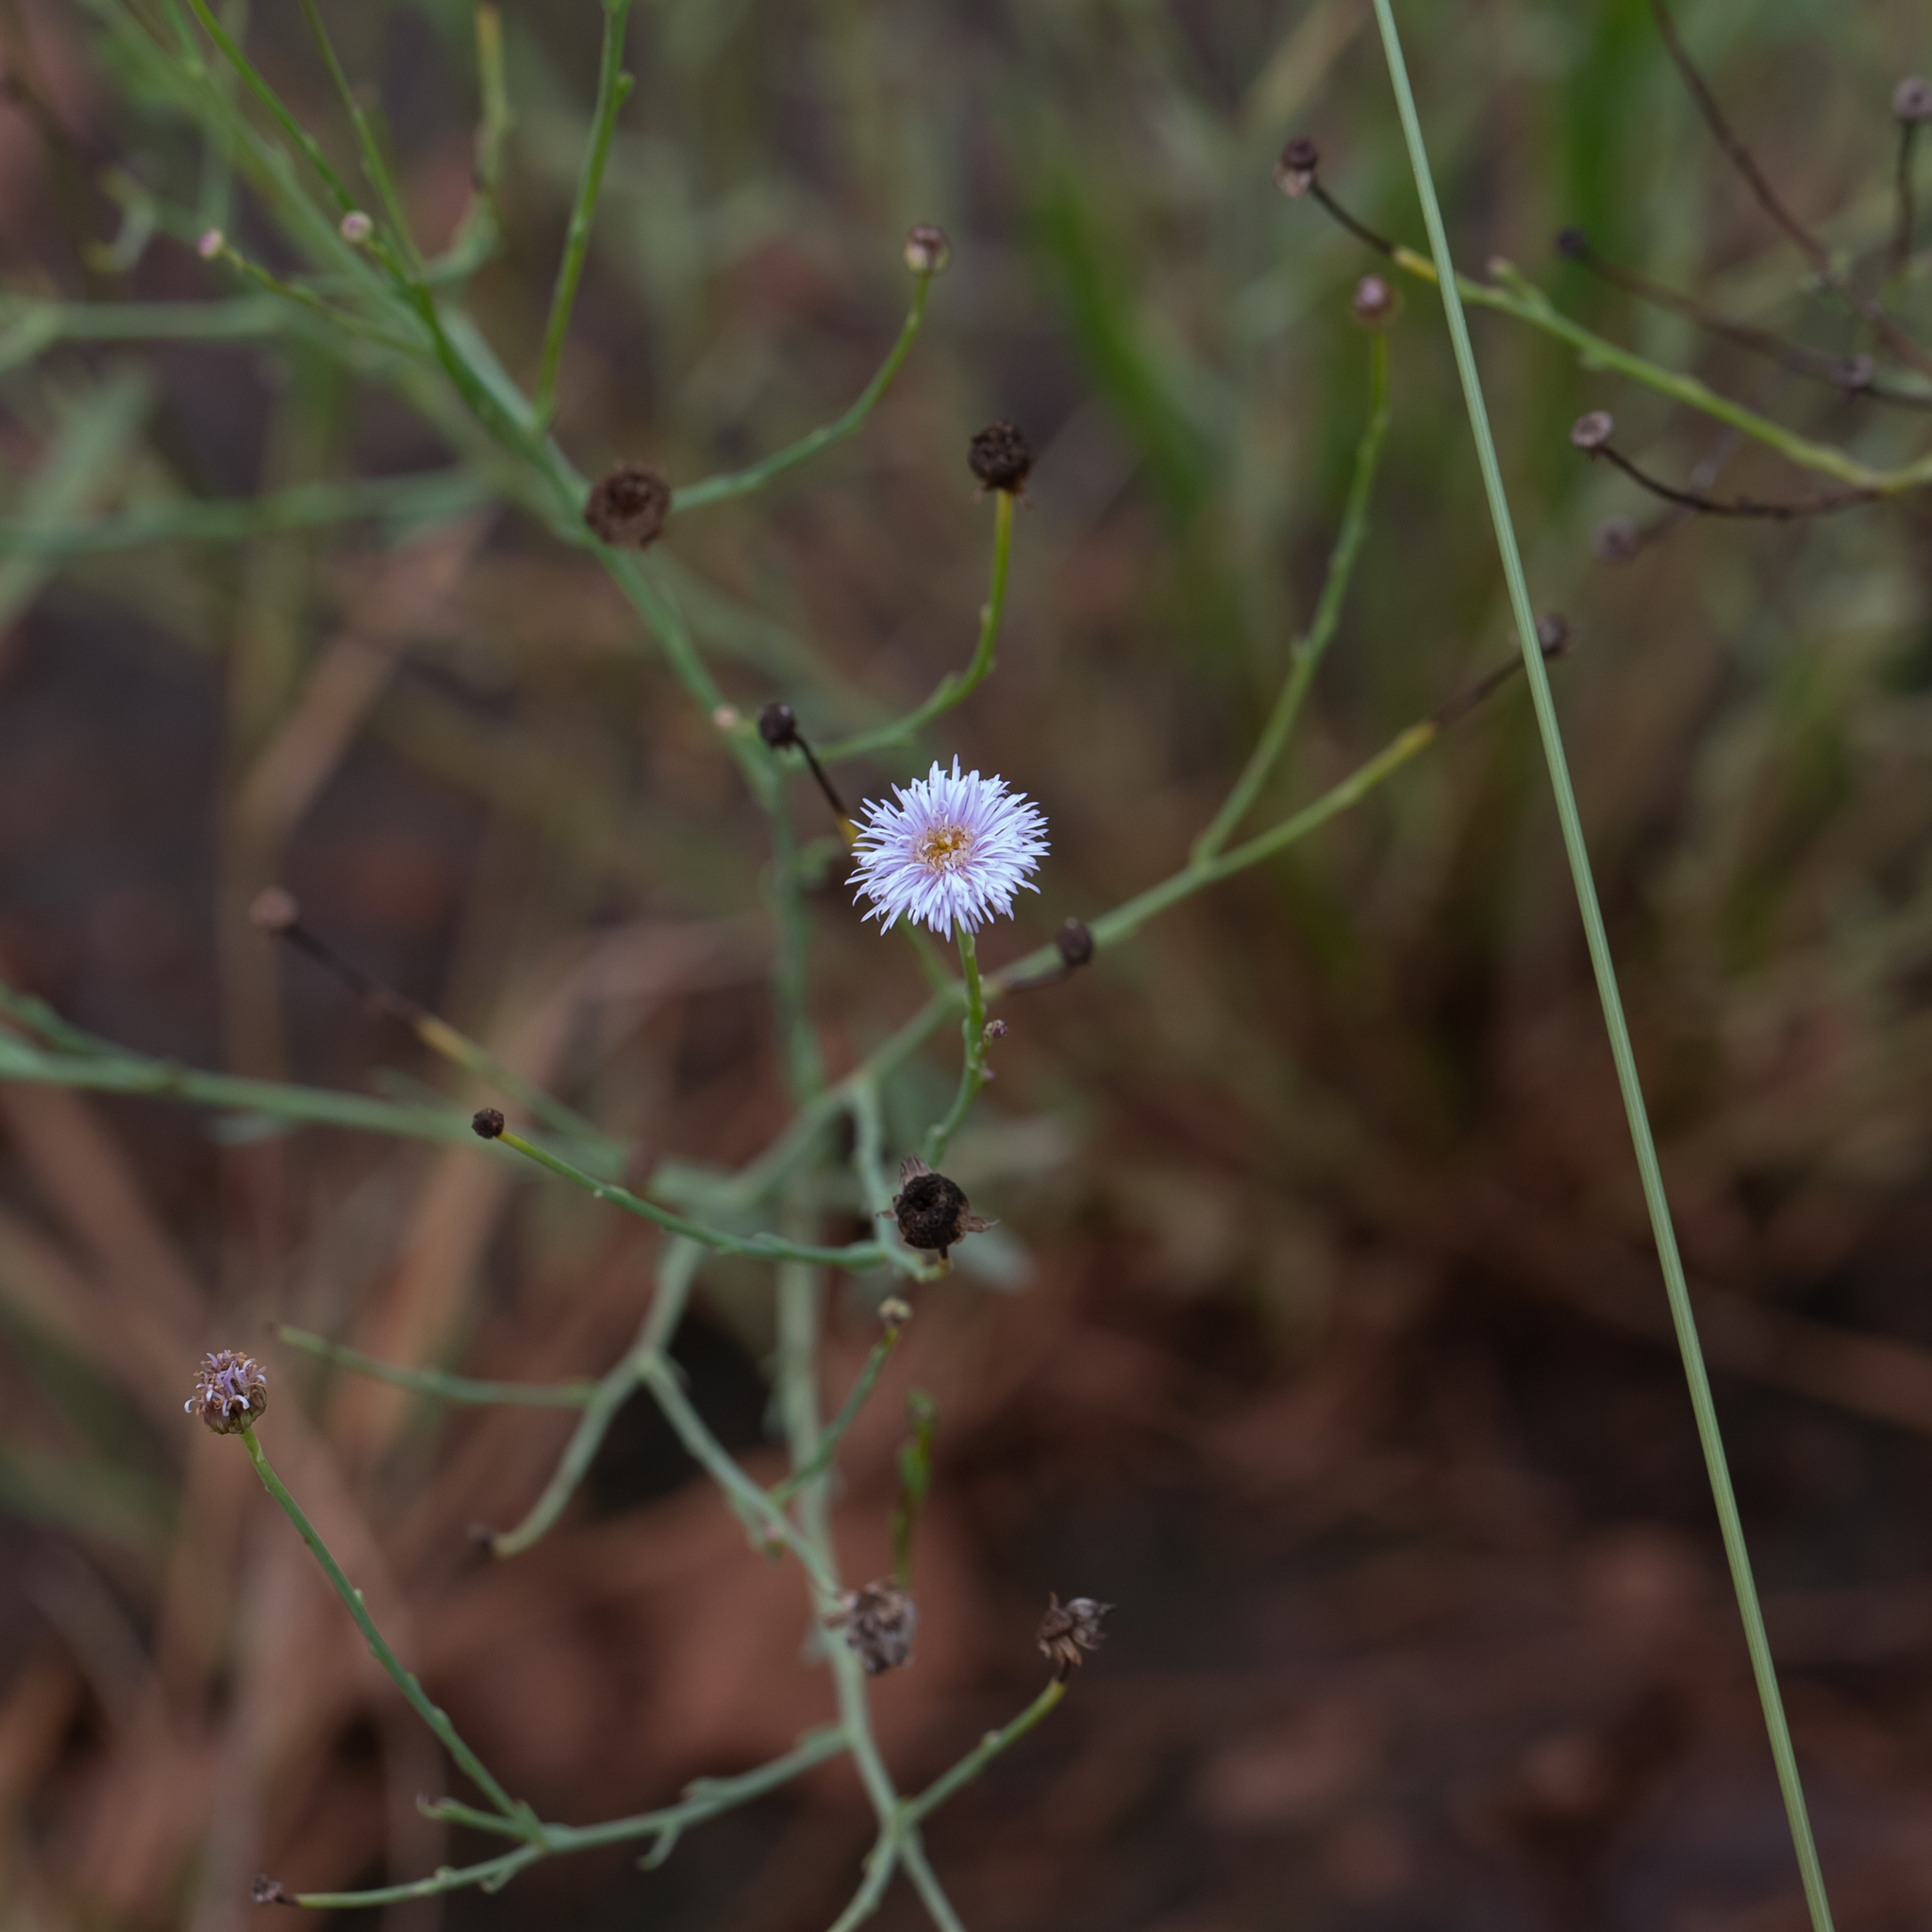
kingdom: Plantae
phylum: Tracheophyta
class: Magnoliopsida
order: Asterales
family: Asteraceae
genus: Minuria
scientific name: Minuria integerrima
